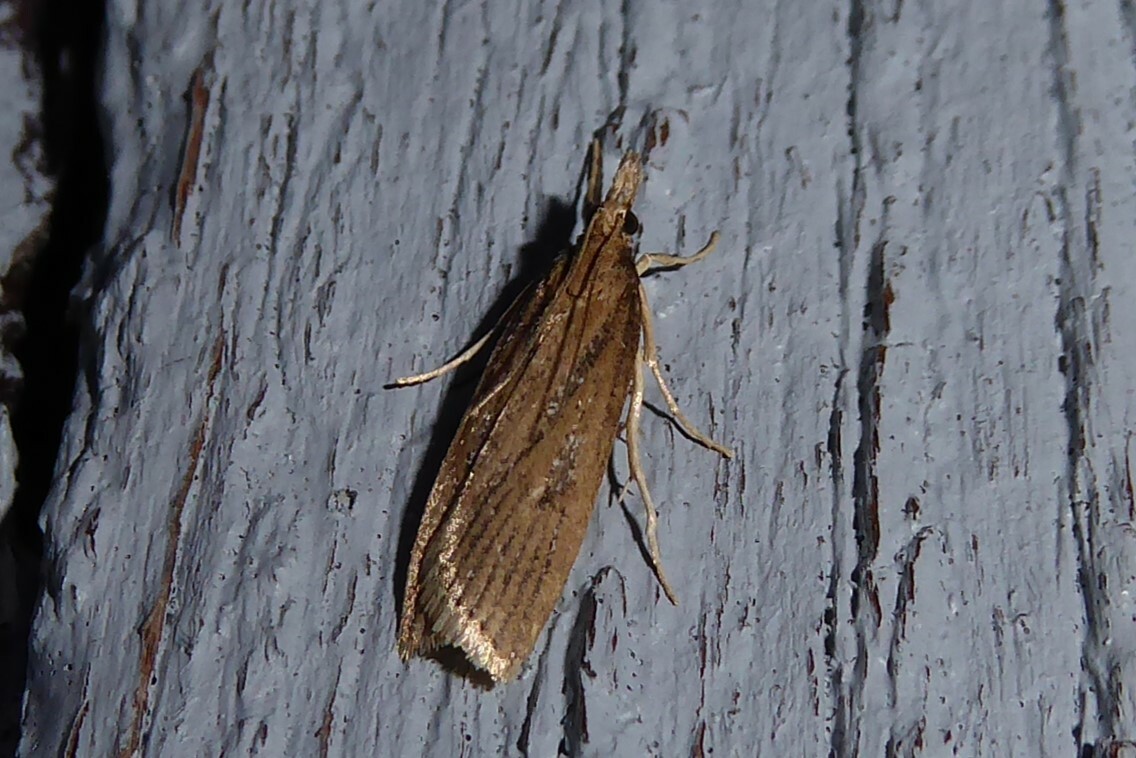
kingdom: Animalia
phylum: Arthropoda
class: Insecta
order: Lepidoptera
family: Crambidae
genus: Eudonia
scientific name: Eudonia octophora
